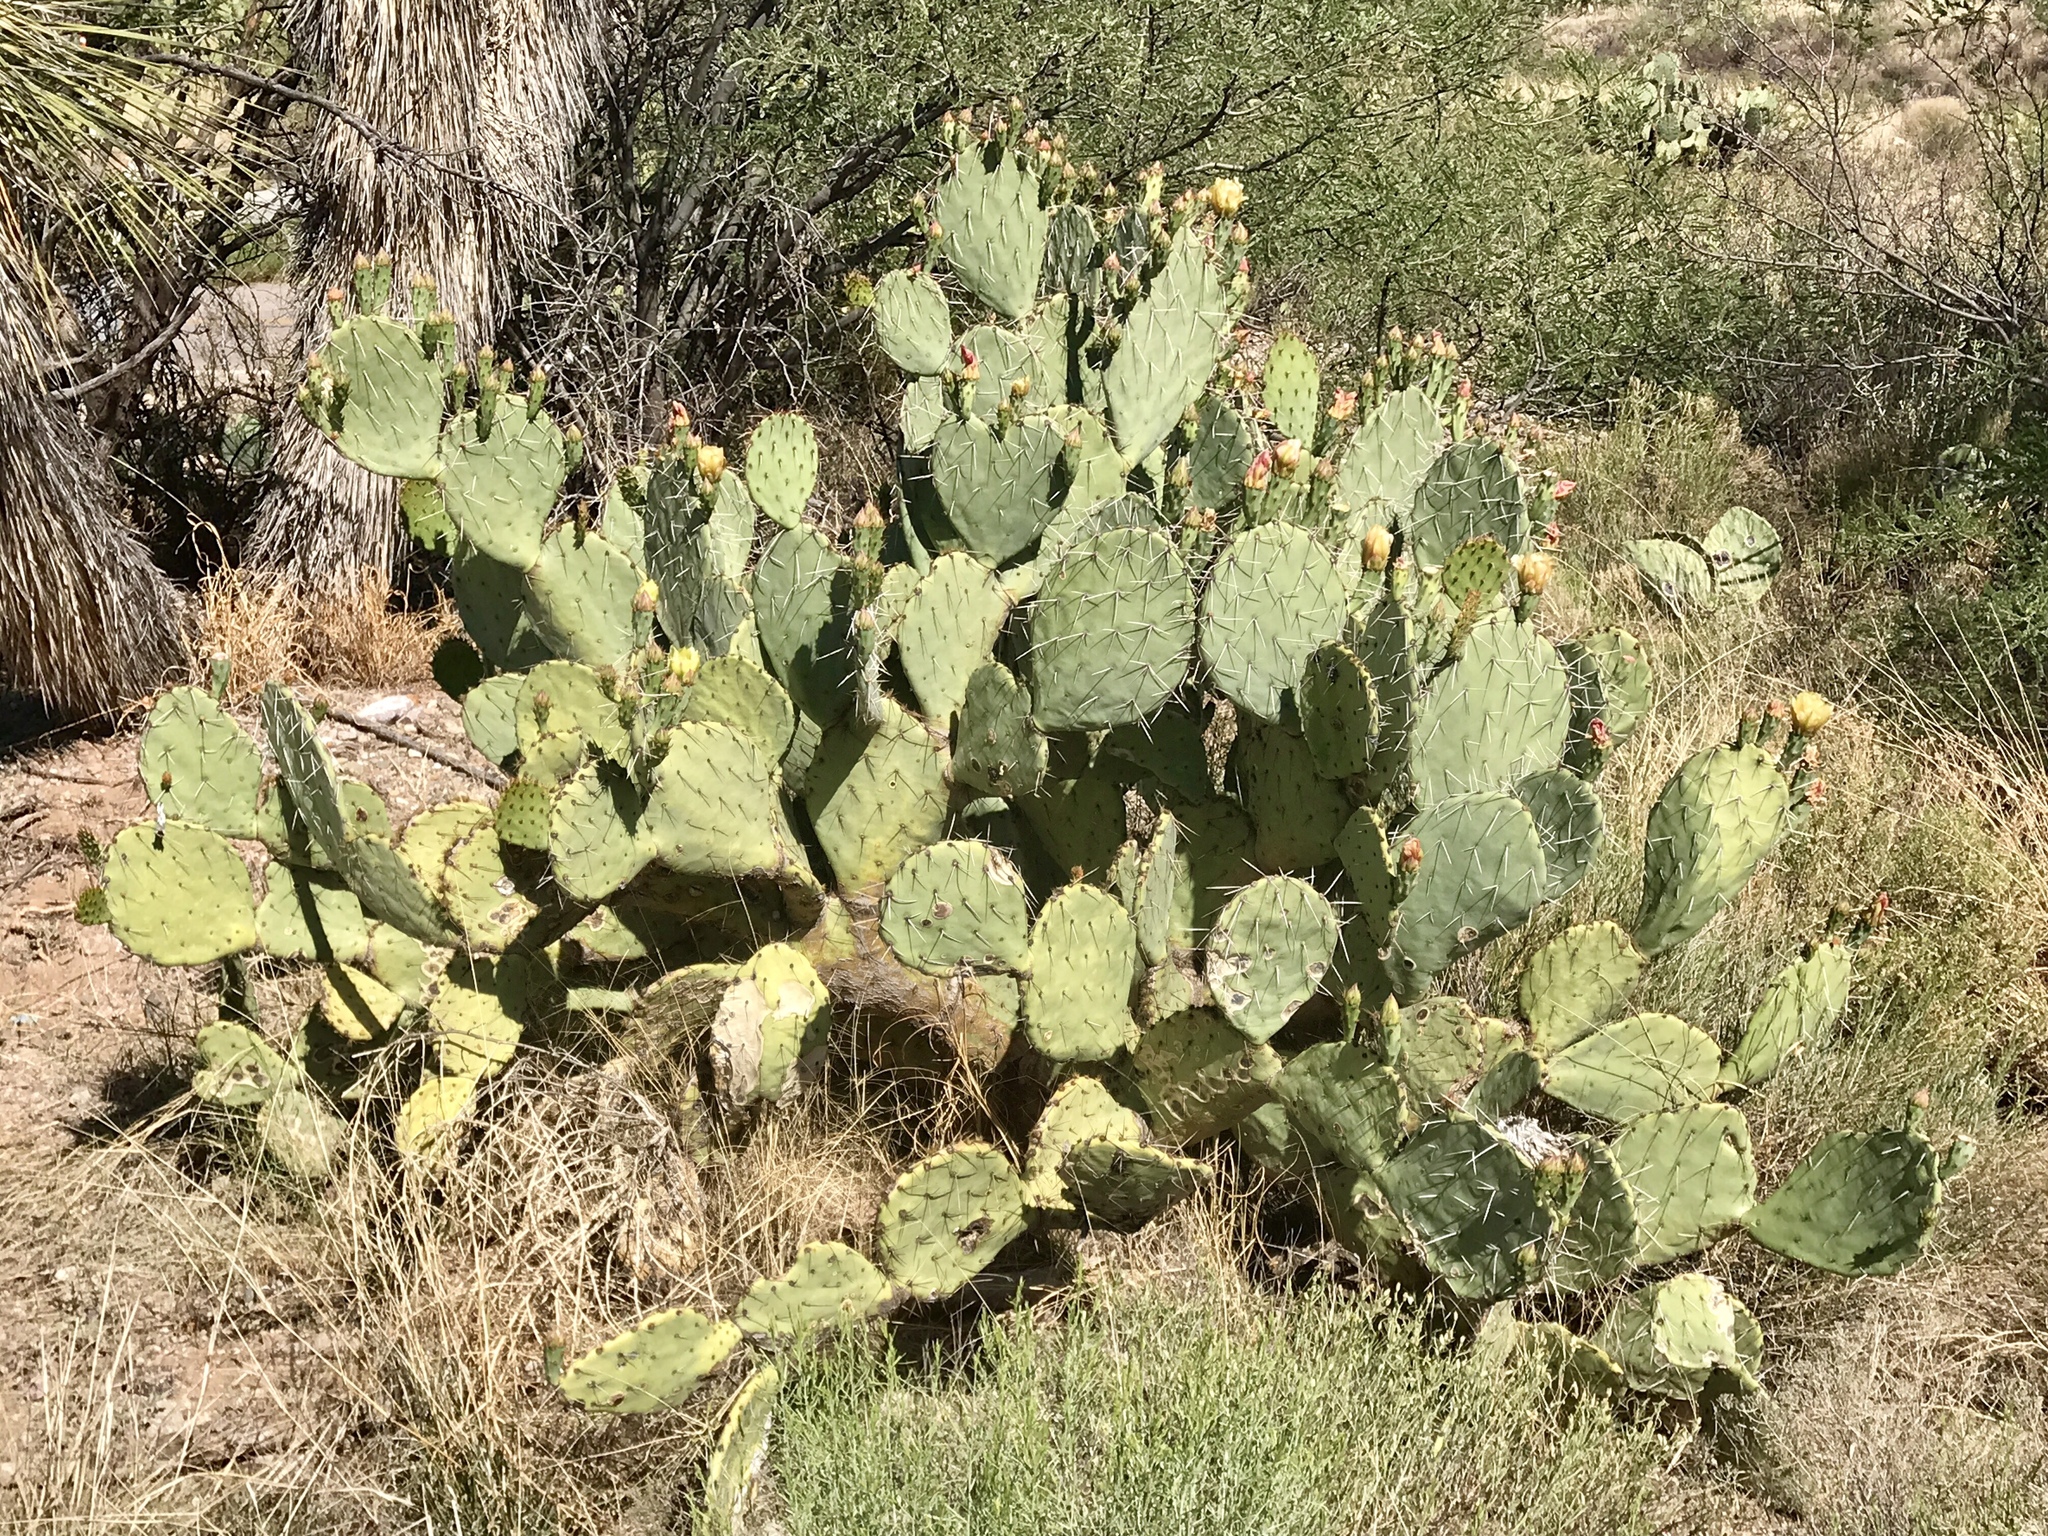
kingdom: Plantae
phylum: Tracheophyta
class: Magnoliopsida
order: Caryophyllales
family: Cactaceae
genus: Opuntia
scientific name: Opuntia engelmannii
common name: Cactus-apple
